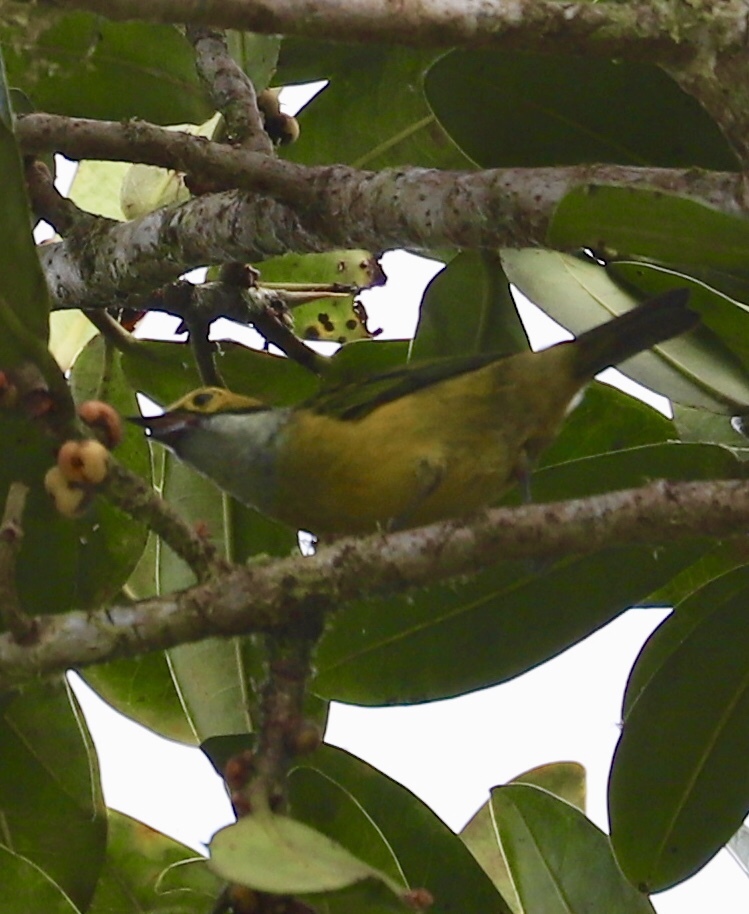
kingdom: Animalia
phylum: Chordata
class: Aves
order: Passeriformes
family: Thraupidae
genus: Tangara
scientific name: Tangara icterocephala
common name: Silver-throated tanager
